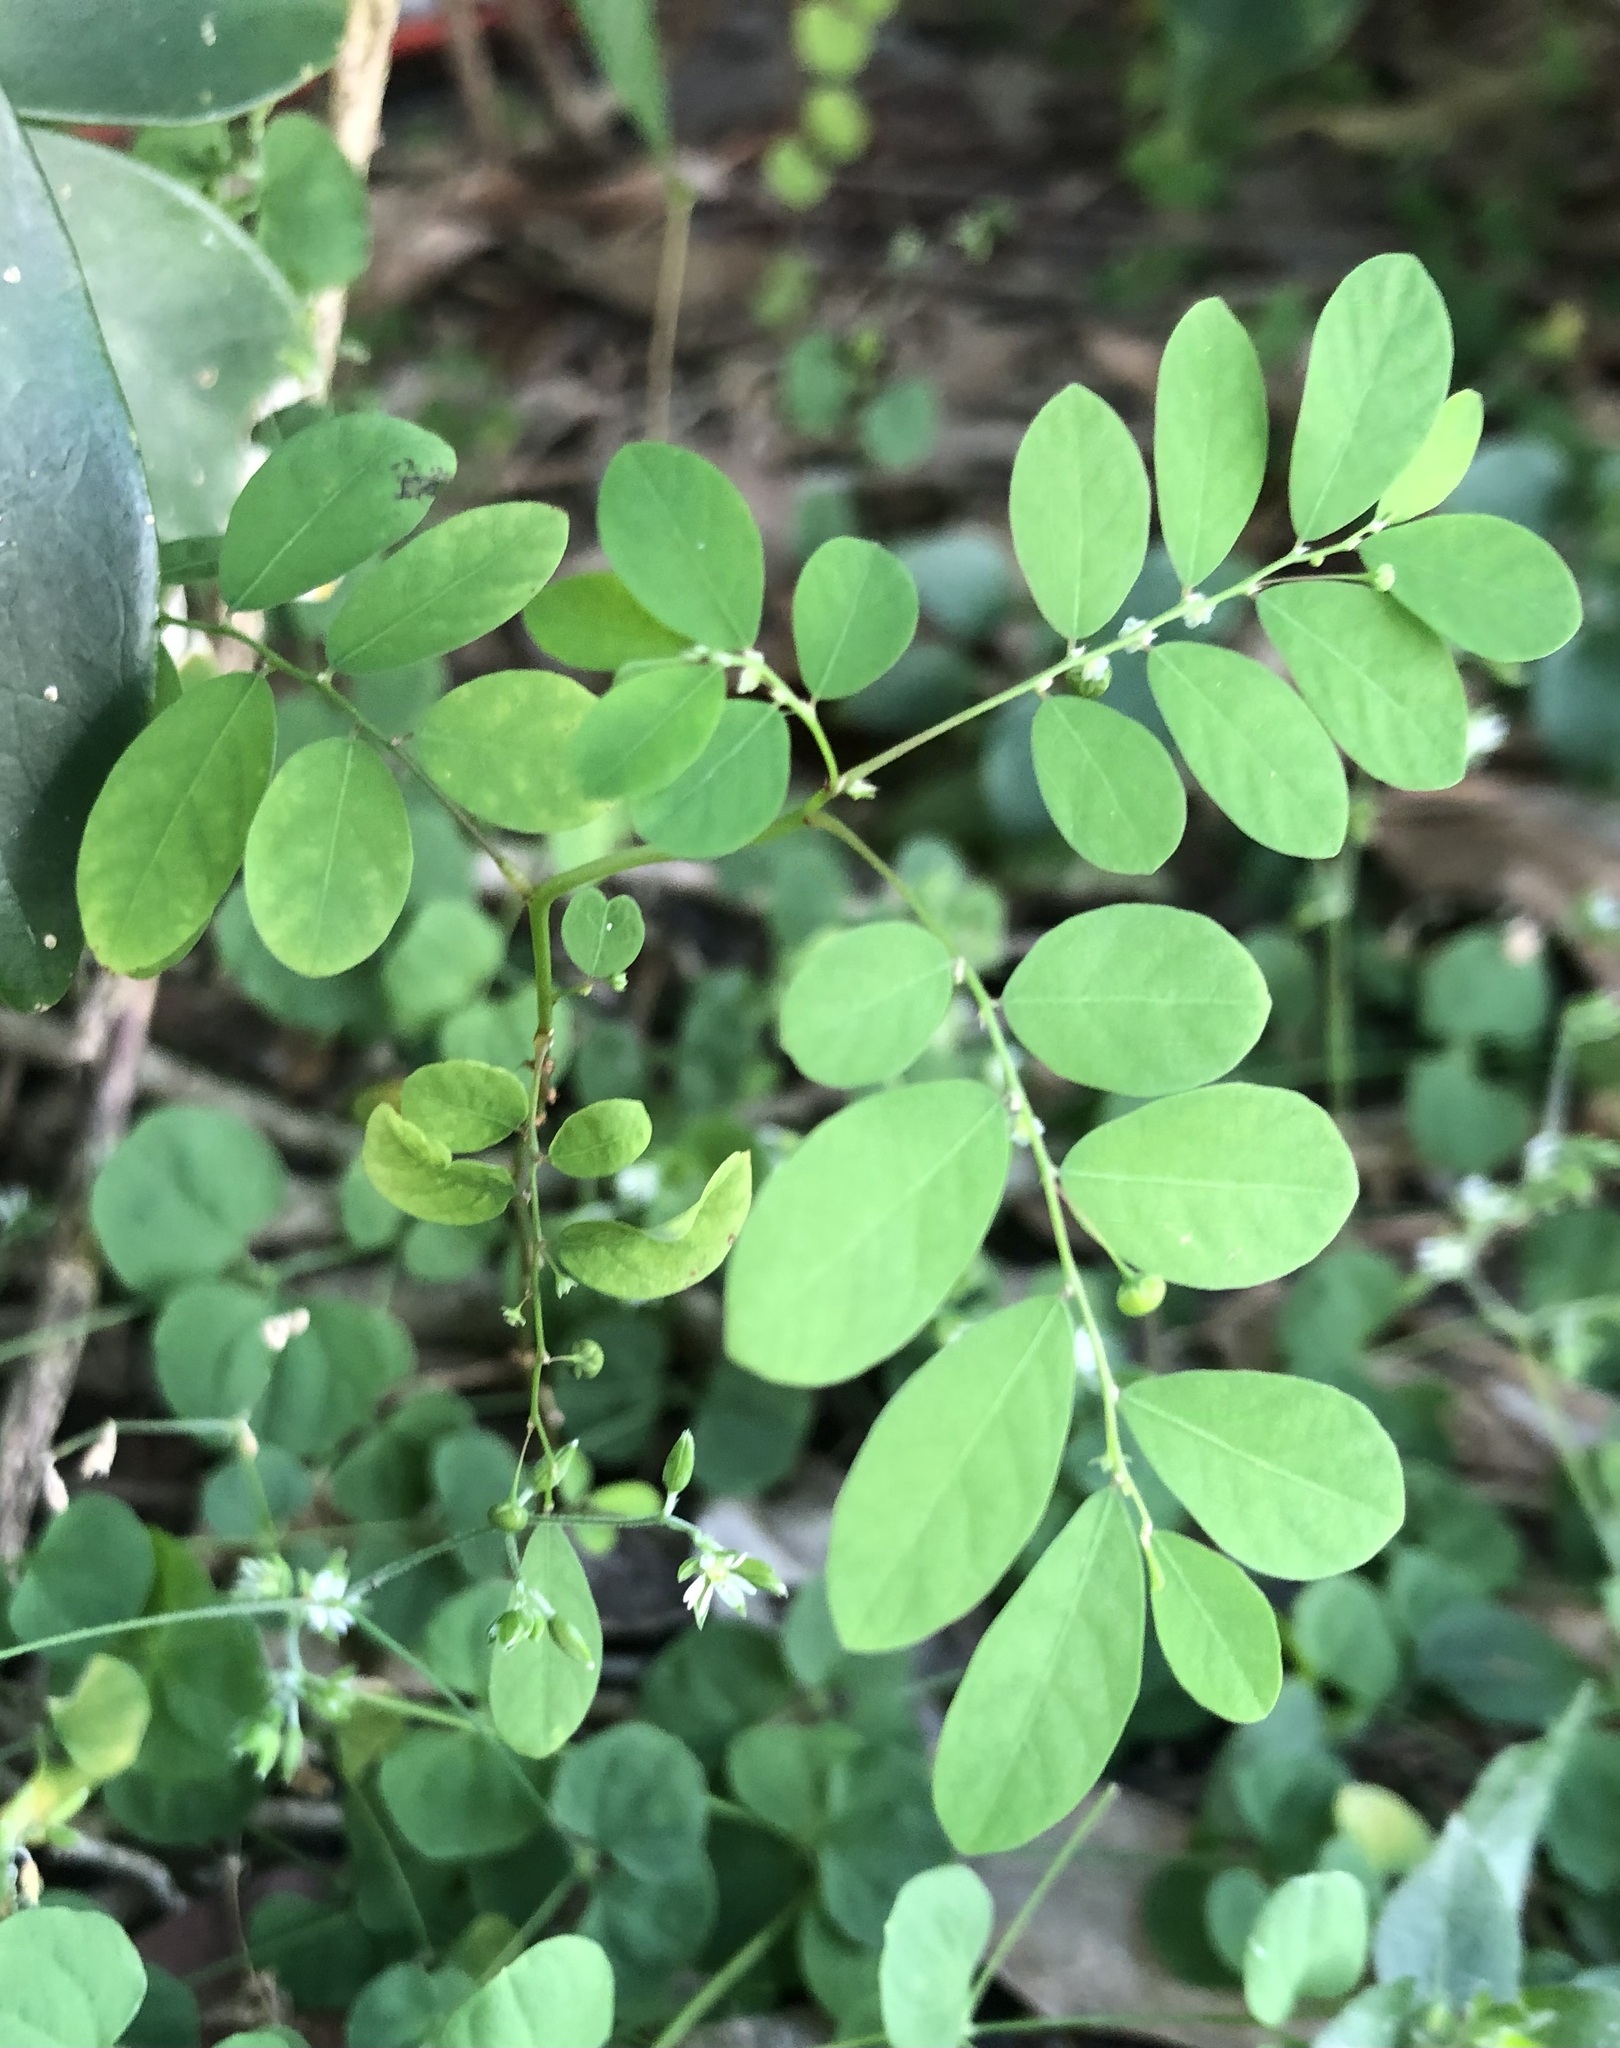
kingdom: Plantae
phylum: Tracheophyta
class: Magnoliopsida
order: Malpighiales
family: Phyllanthaceae
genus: Phyllanthus
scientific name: Phyllanthus tenellus
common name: Mascarene island leaf-flower
